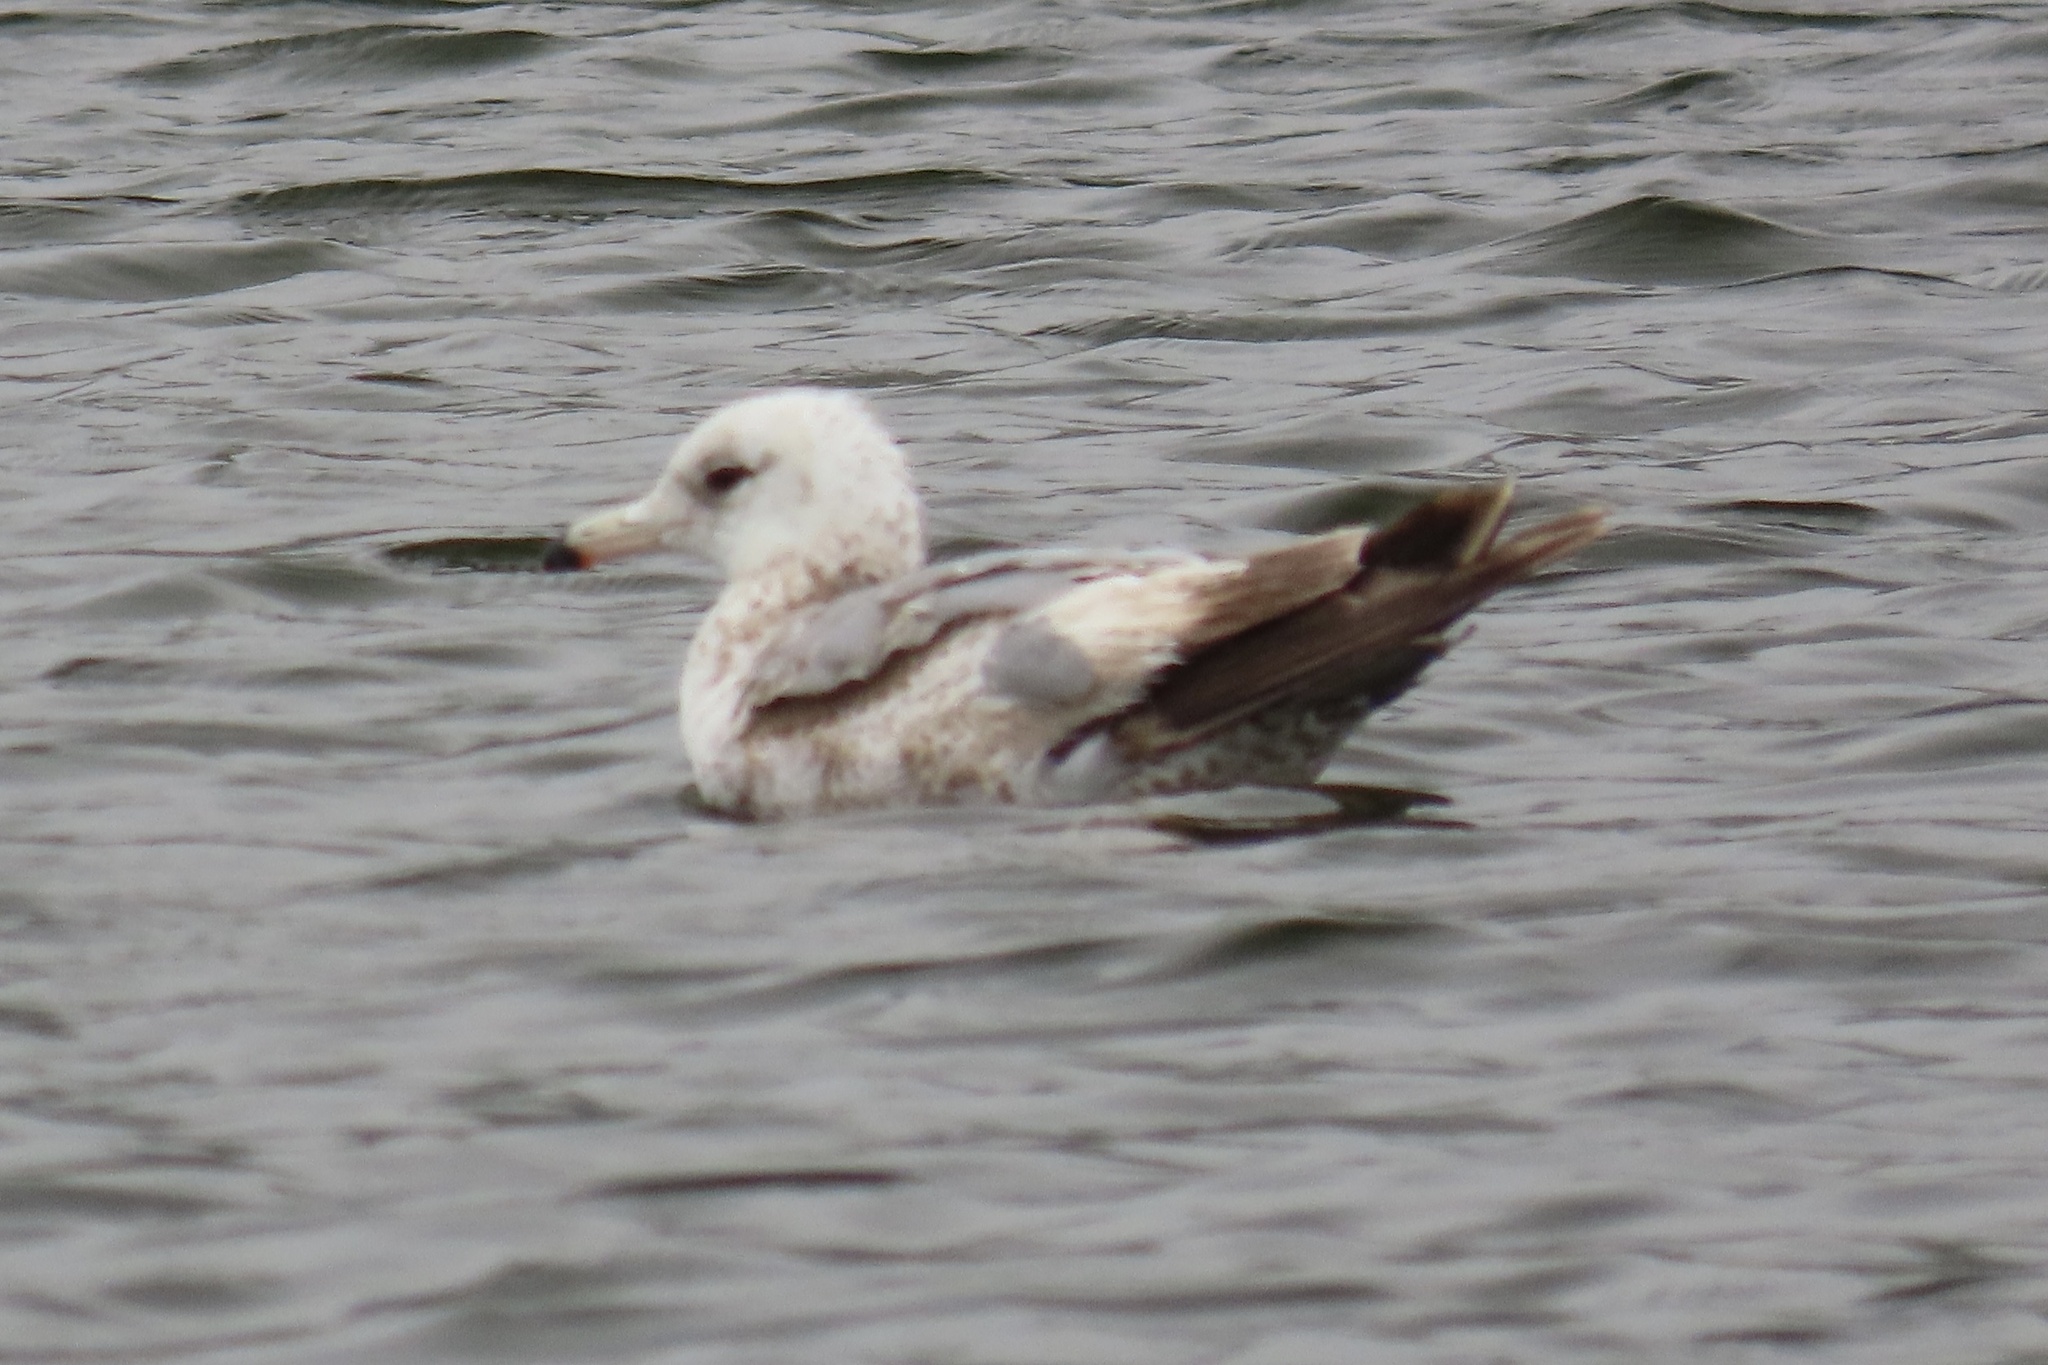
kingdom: Animalia
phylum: Chordata
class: Aves
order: Charadriiformes
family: Laridae
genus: Larus
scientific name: Larus californicus
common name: California gull
